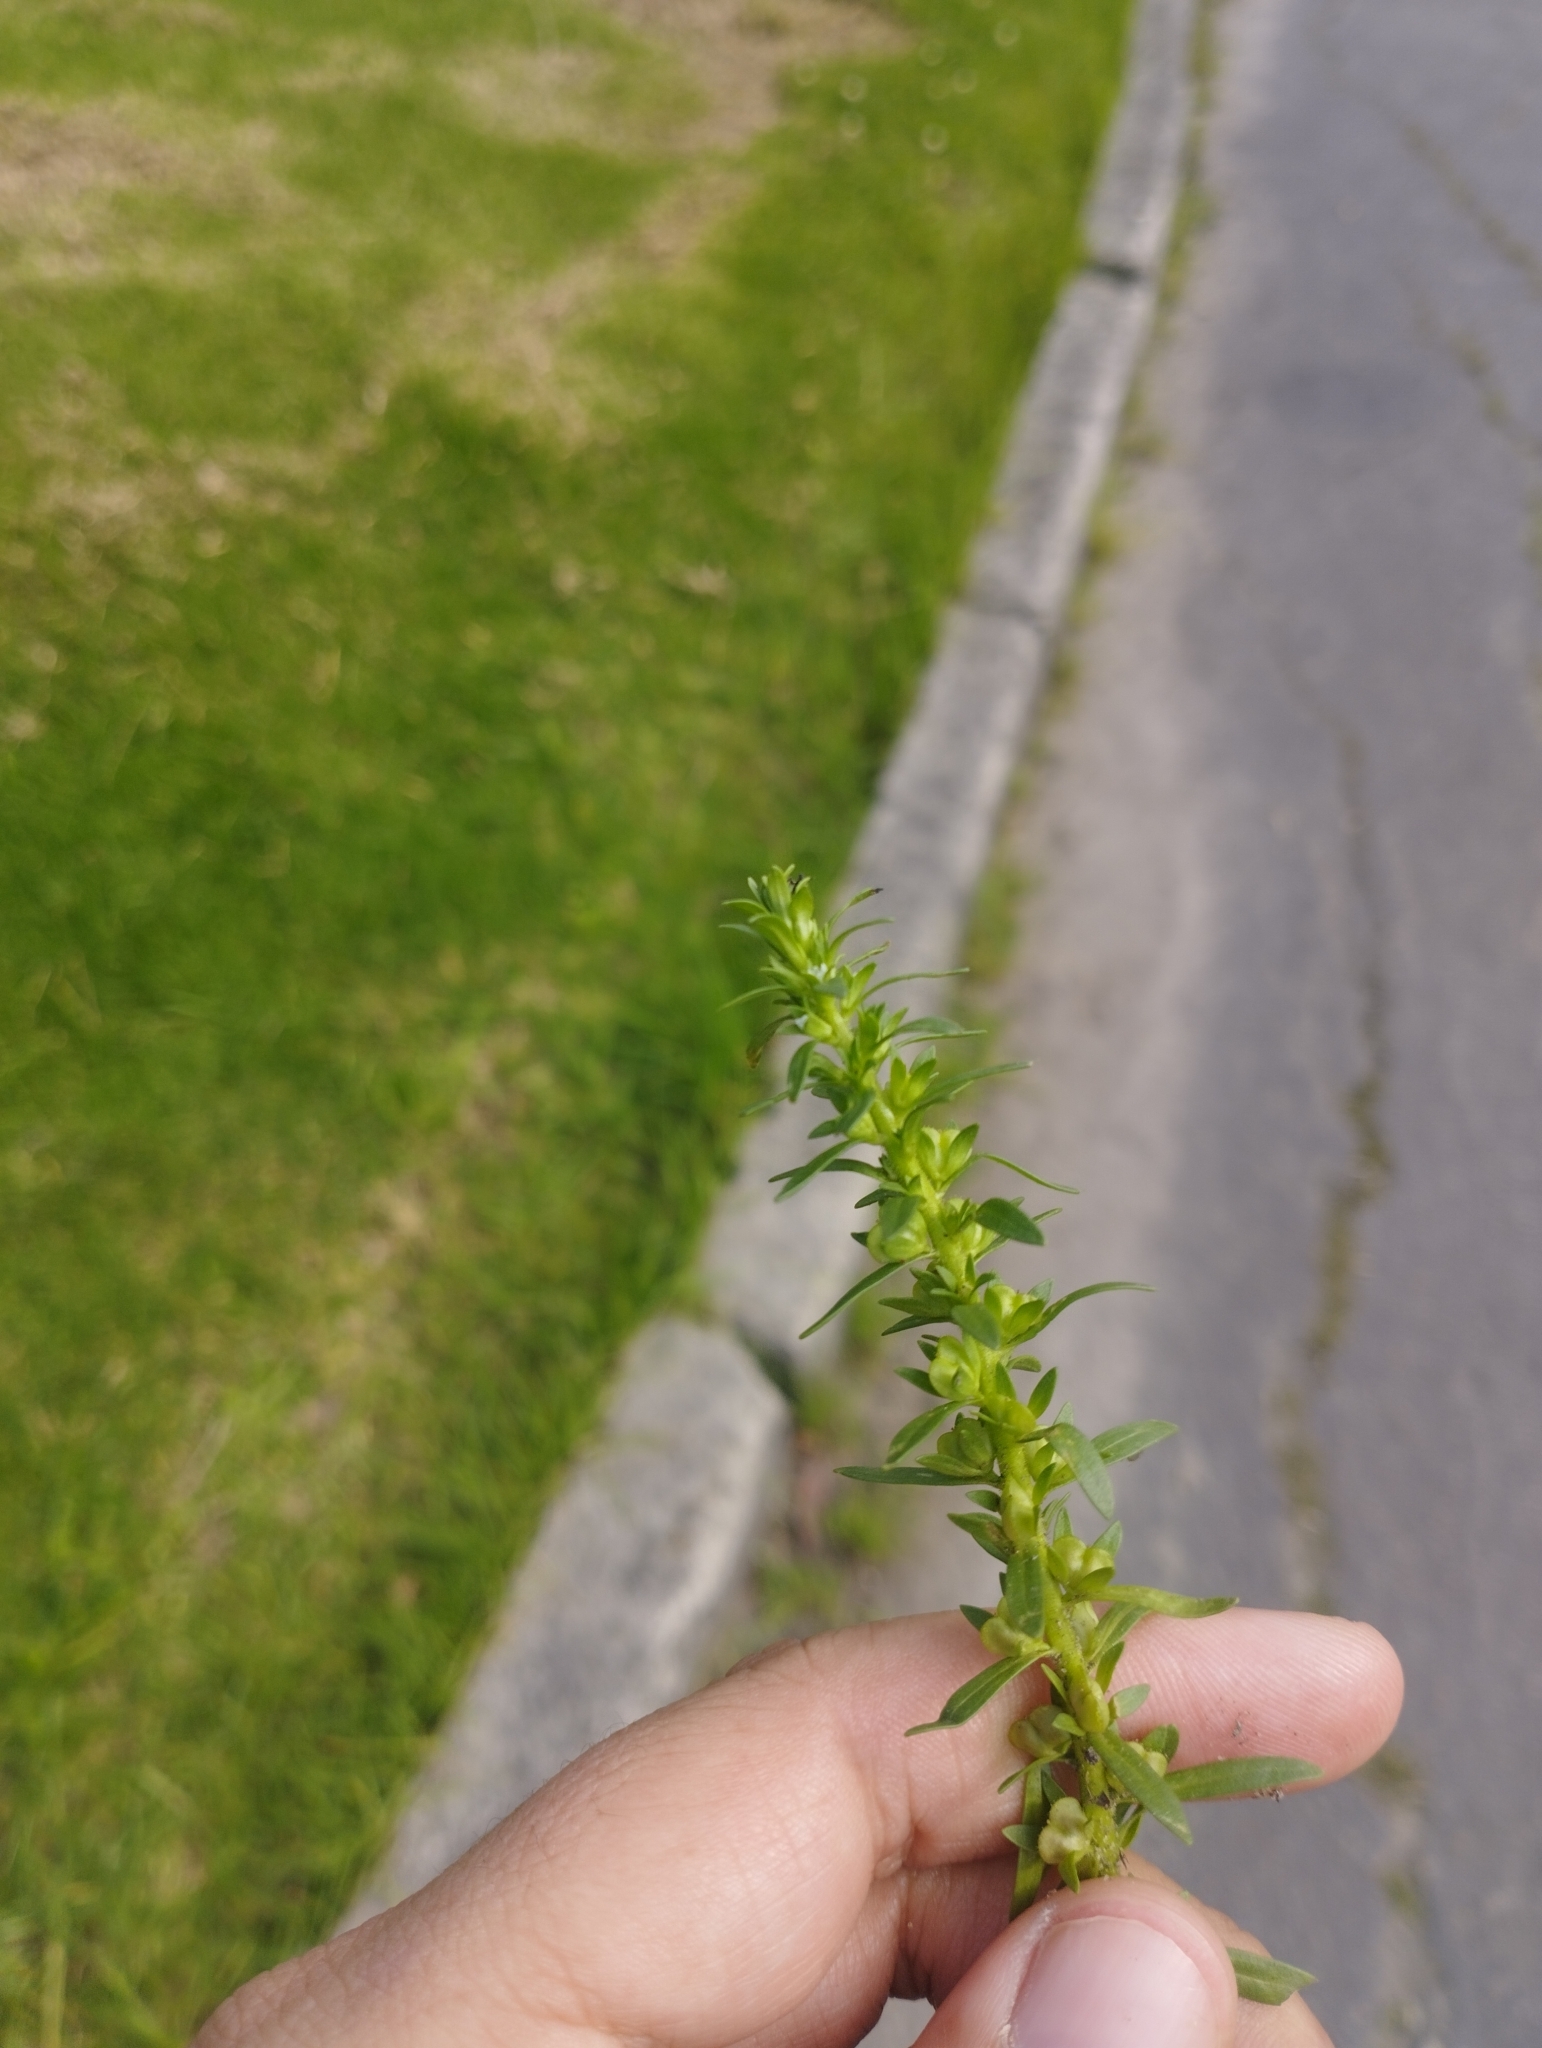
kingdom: Plantae
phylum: Tracheophyta
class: Magnoliopsida
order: Lamiales
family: Plantaginaceae
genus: Veronica
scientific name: Veronica peregrina
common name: Neckweed
